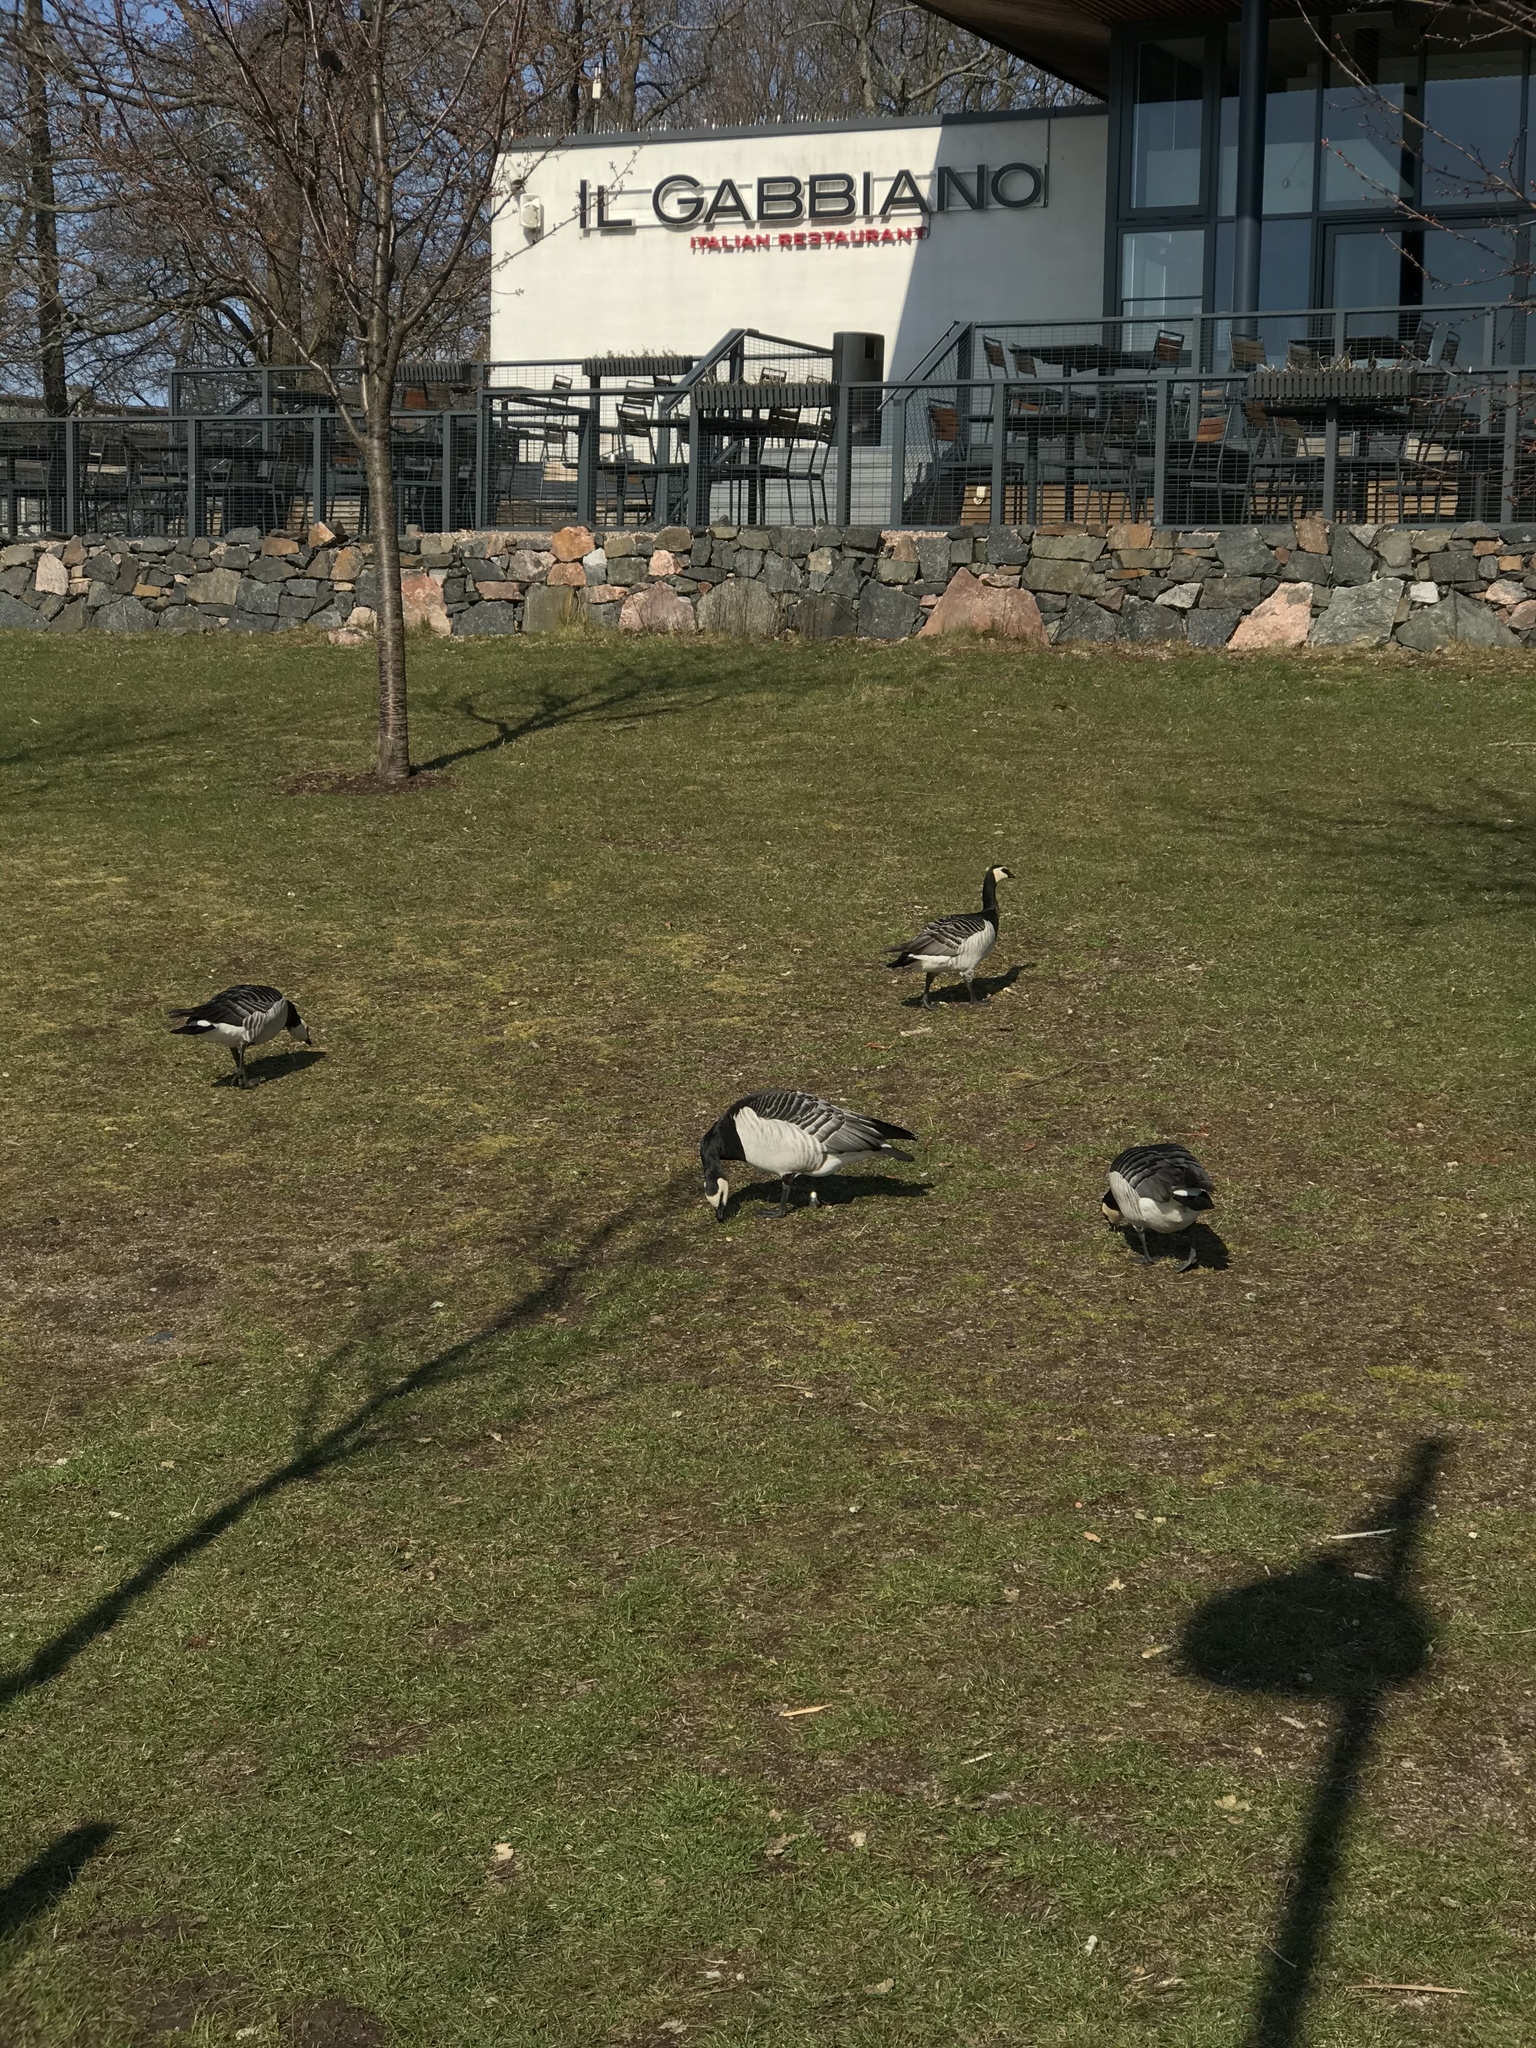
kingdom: Animalia
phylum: Chordata
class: Aves
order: Anseriformes
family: Anatidae
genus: Branta
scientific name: Branta leucopsis
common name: Barnacle goose
